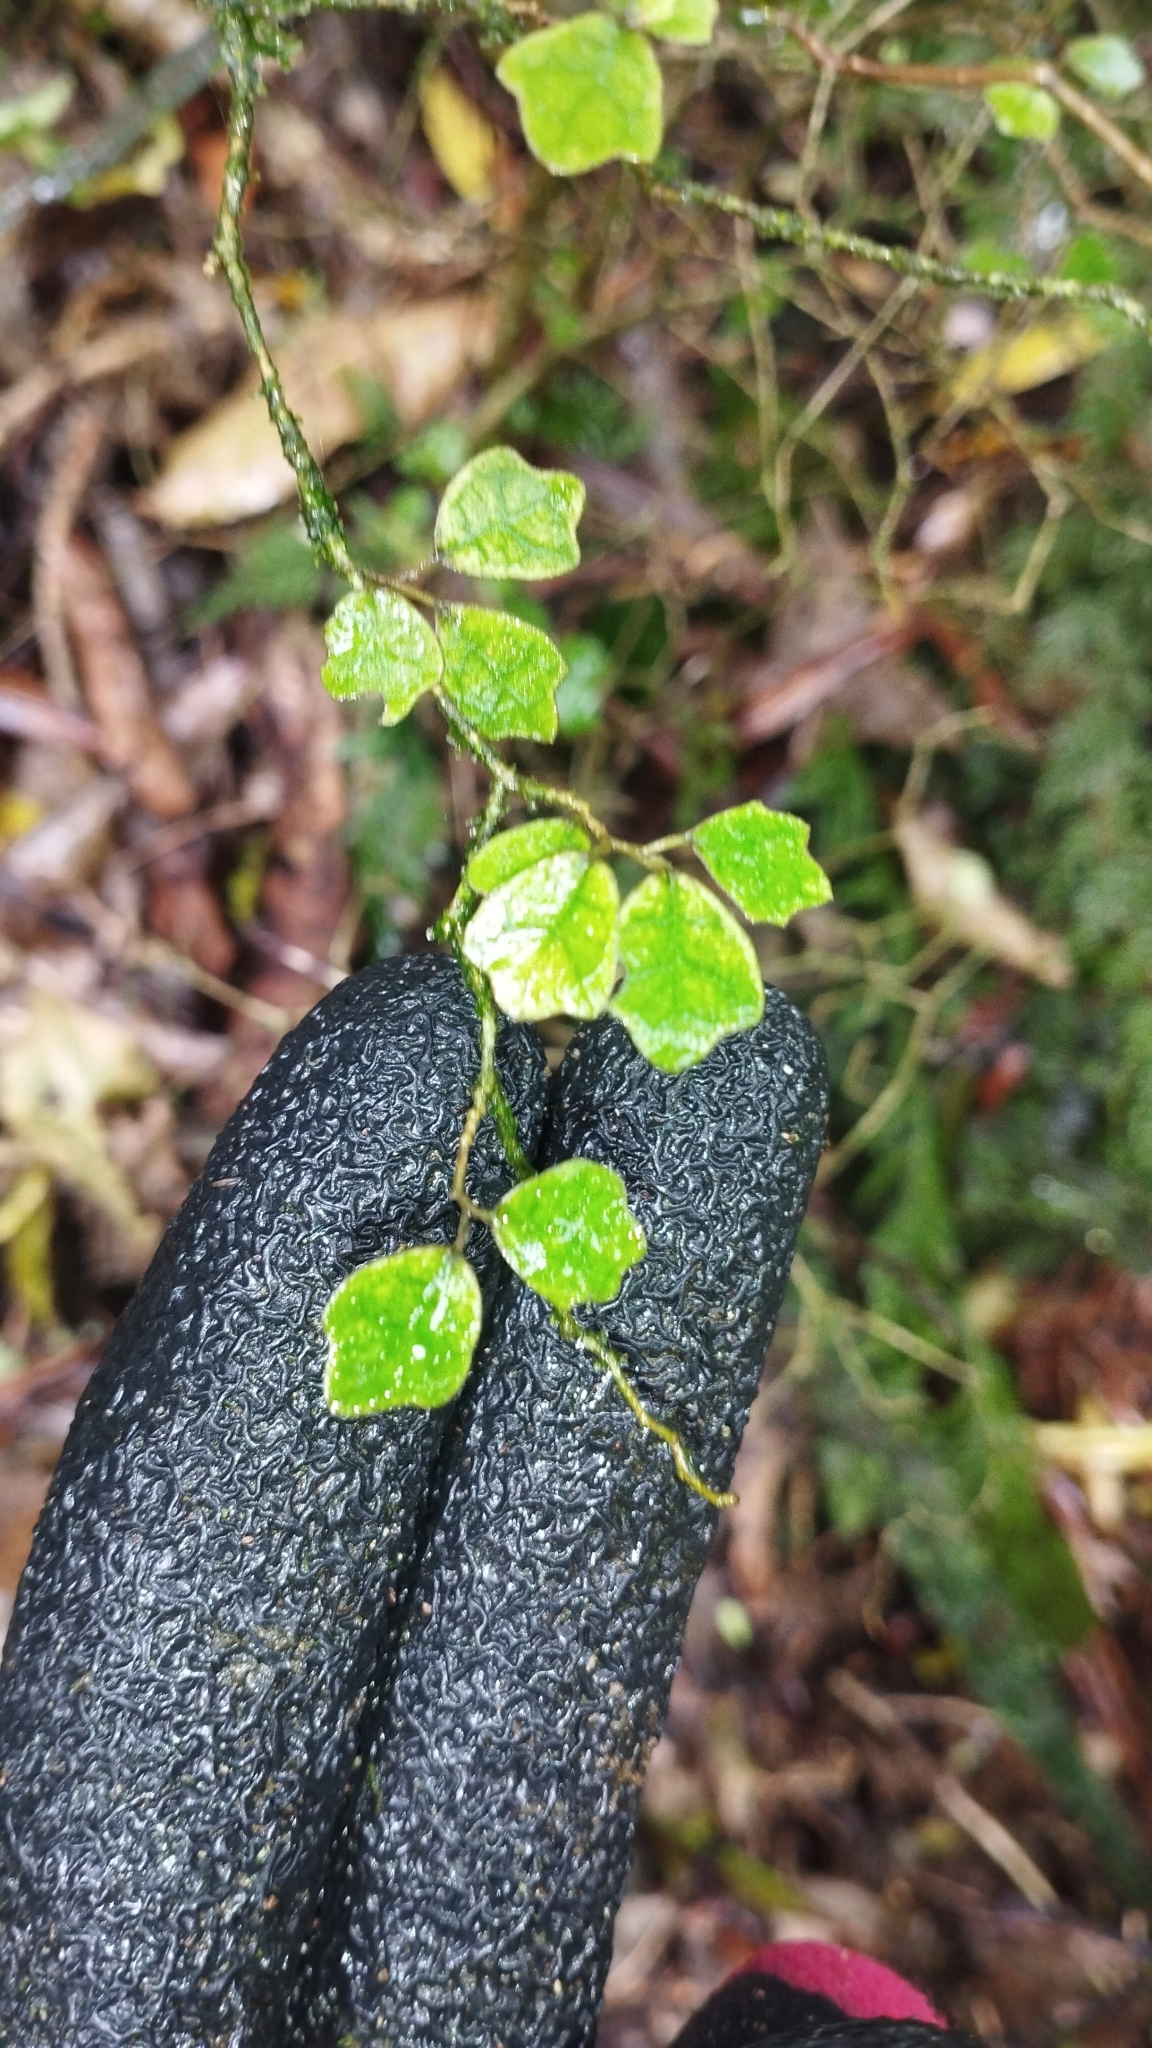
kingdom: Plantae
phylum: Tracheophyta
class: Magnoliopsida
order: Apiales
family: Pennantiaceae
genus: Pennantia
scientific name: Pennantia corymbosa
